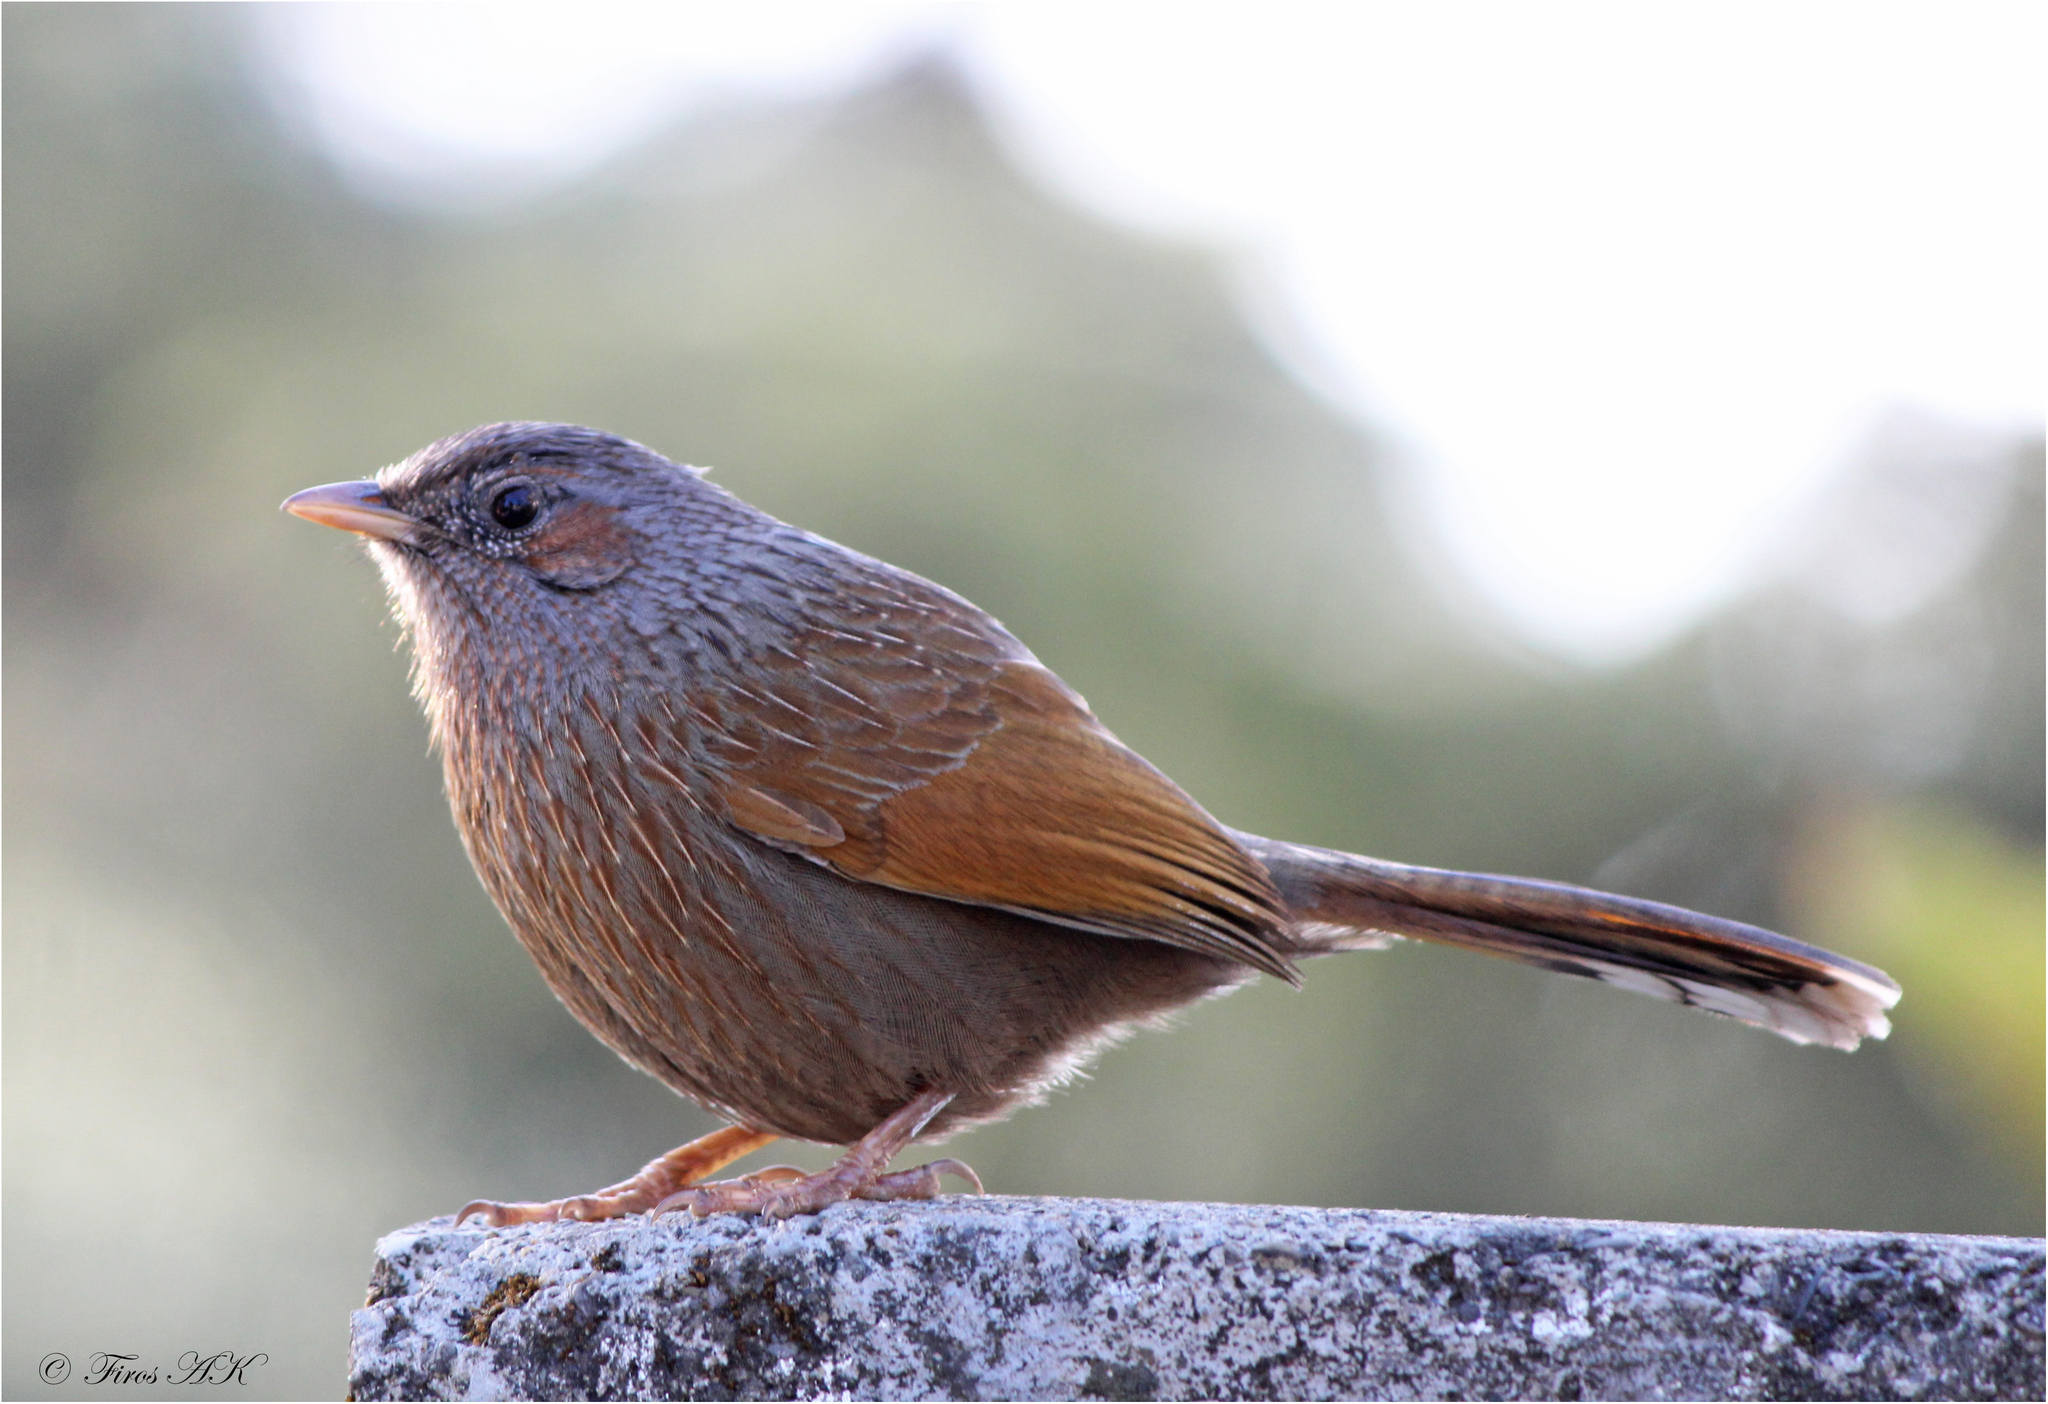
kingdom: Animalia
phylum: Chordata
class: Aves
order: Passeriformes
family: Leiothrichidae
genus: Trochalopteron
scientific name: Trochalopteron lineatum
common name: Streaked laughingthrush
